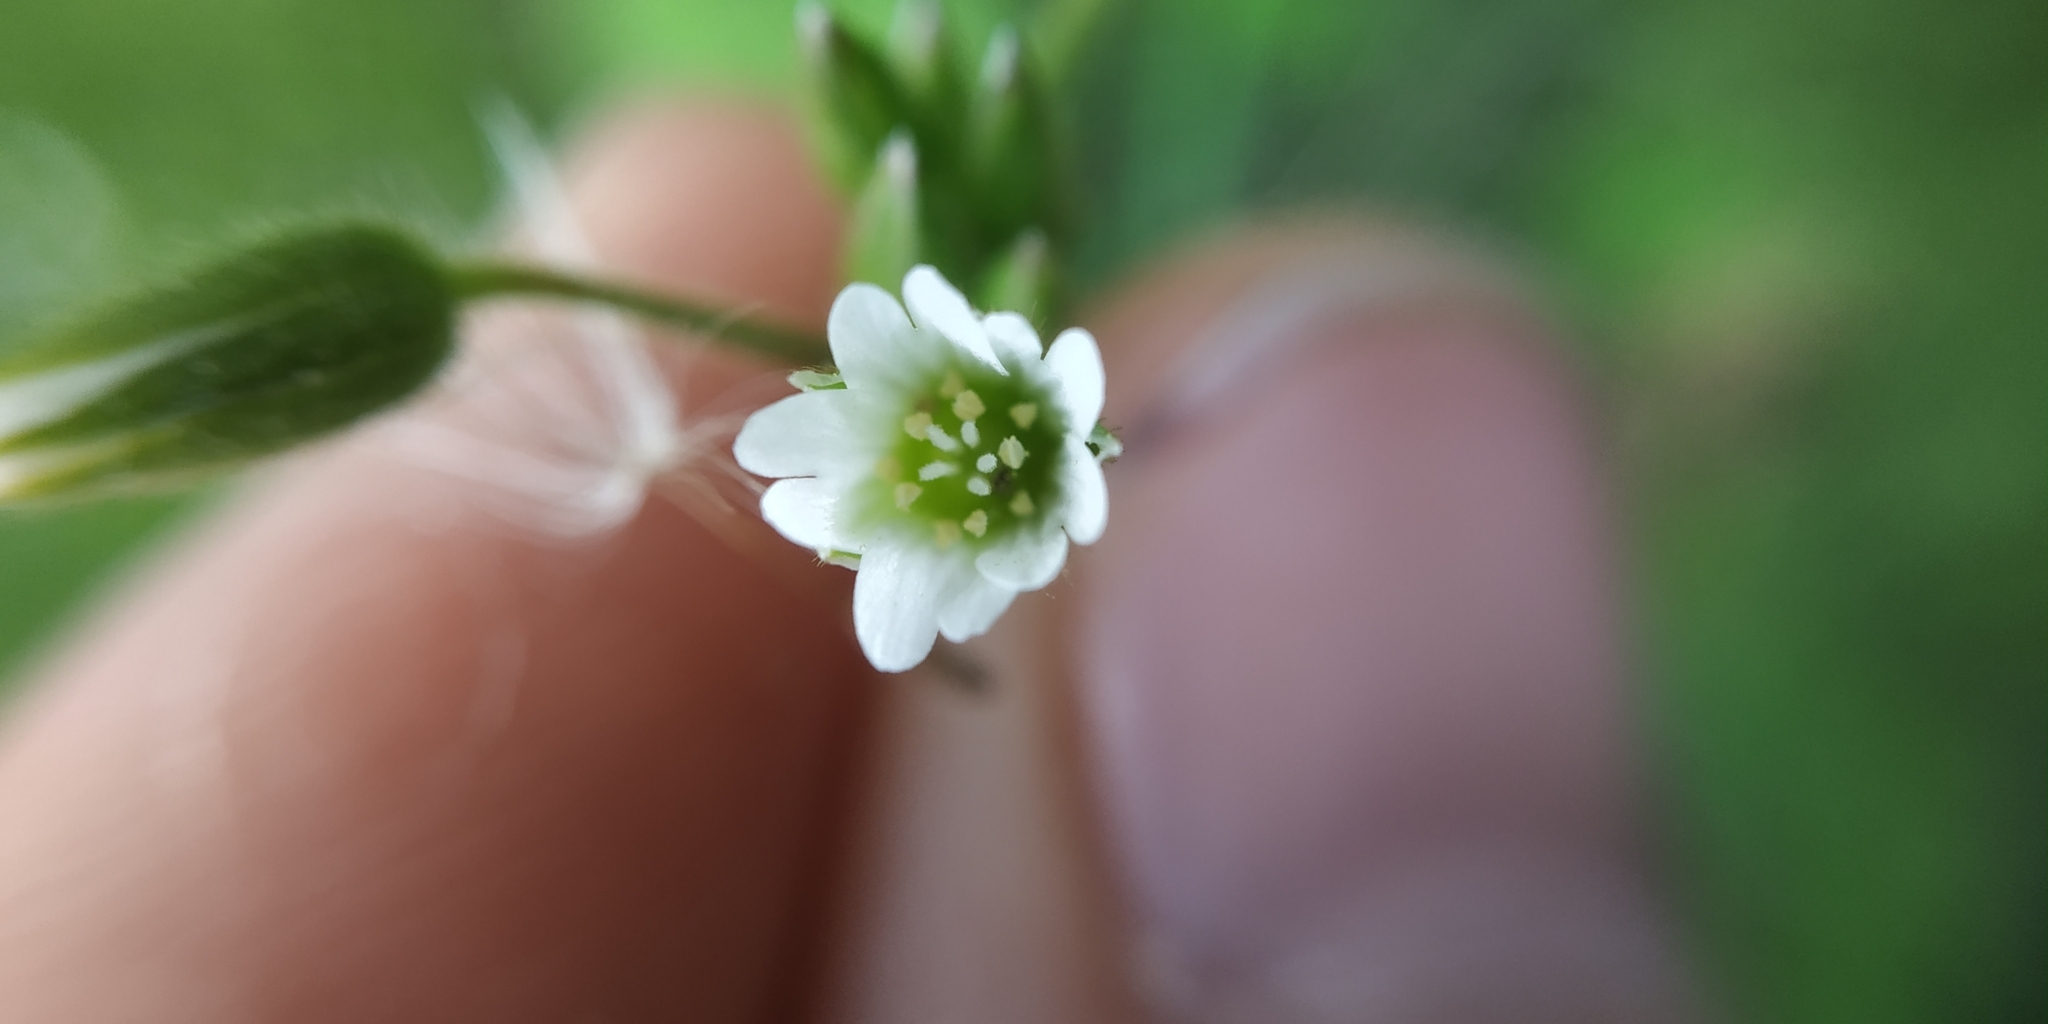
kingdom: Plantae
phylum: Tracheophyta
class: Magnoliopsida
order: Caryophyllales
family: Caryophyllaceae
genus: Cerastium
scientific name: Cerastium holosteoides
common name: Big chickweed
